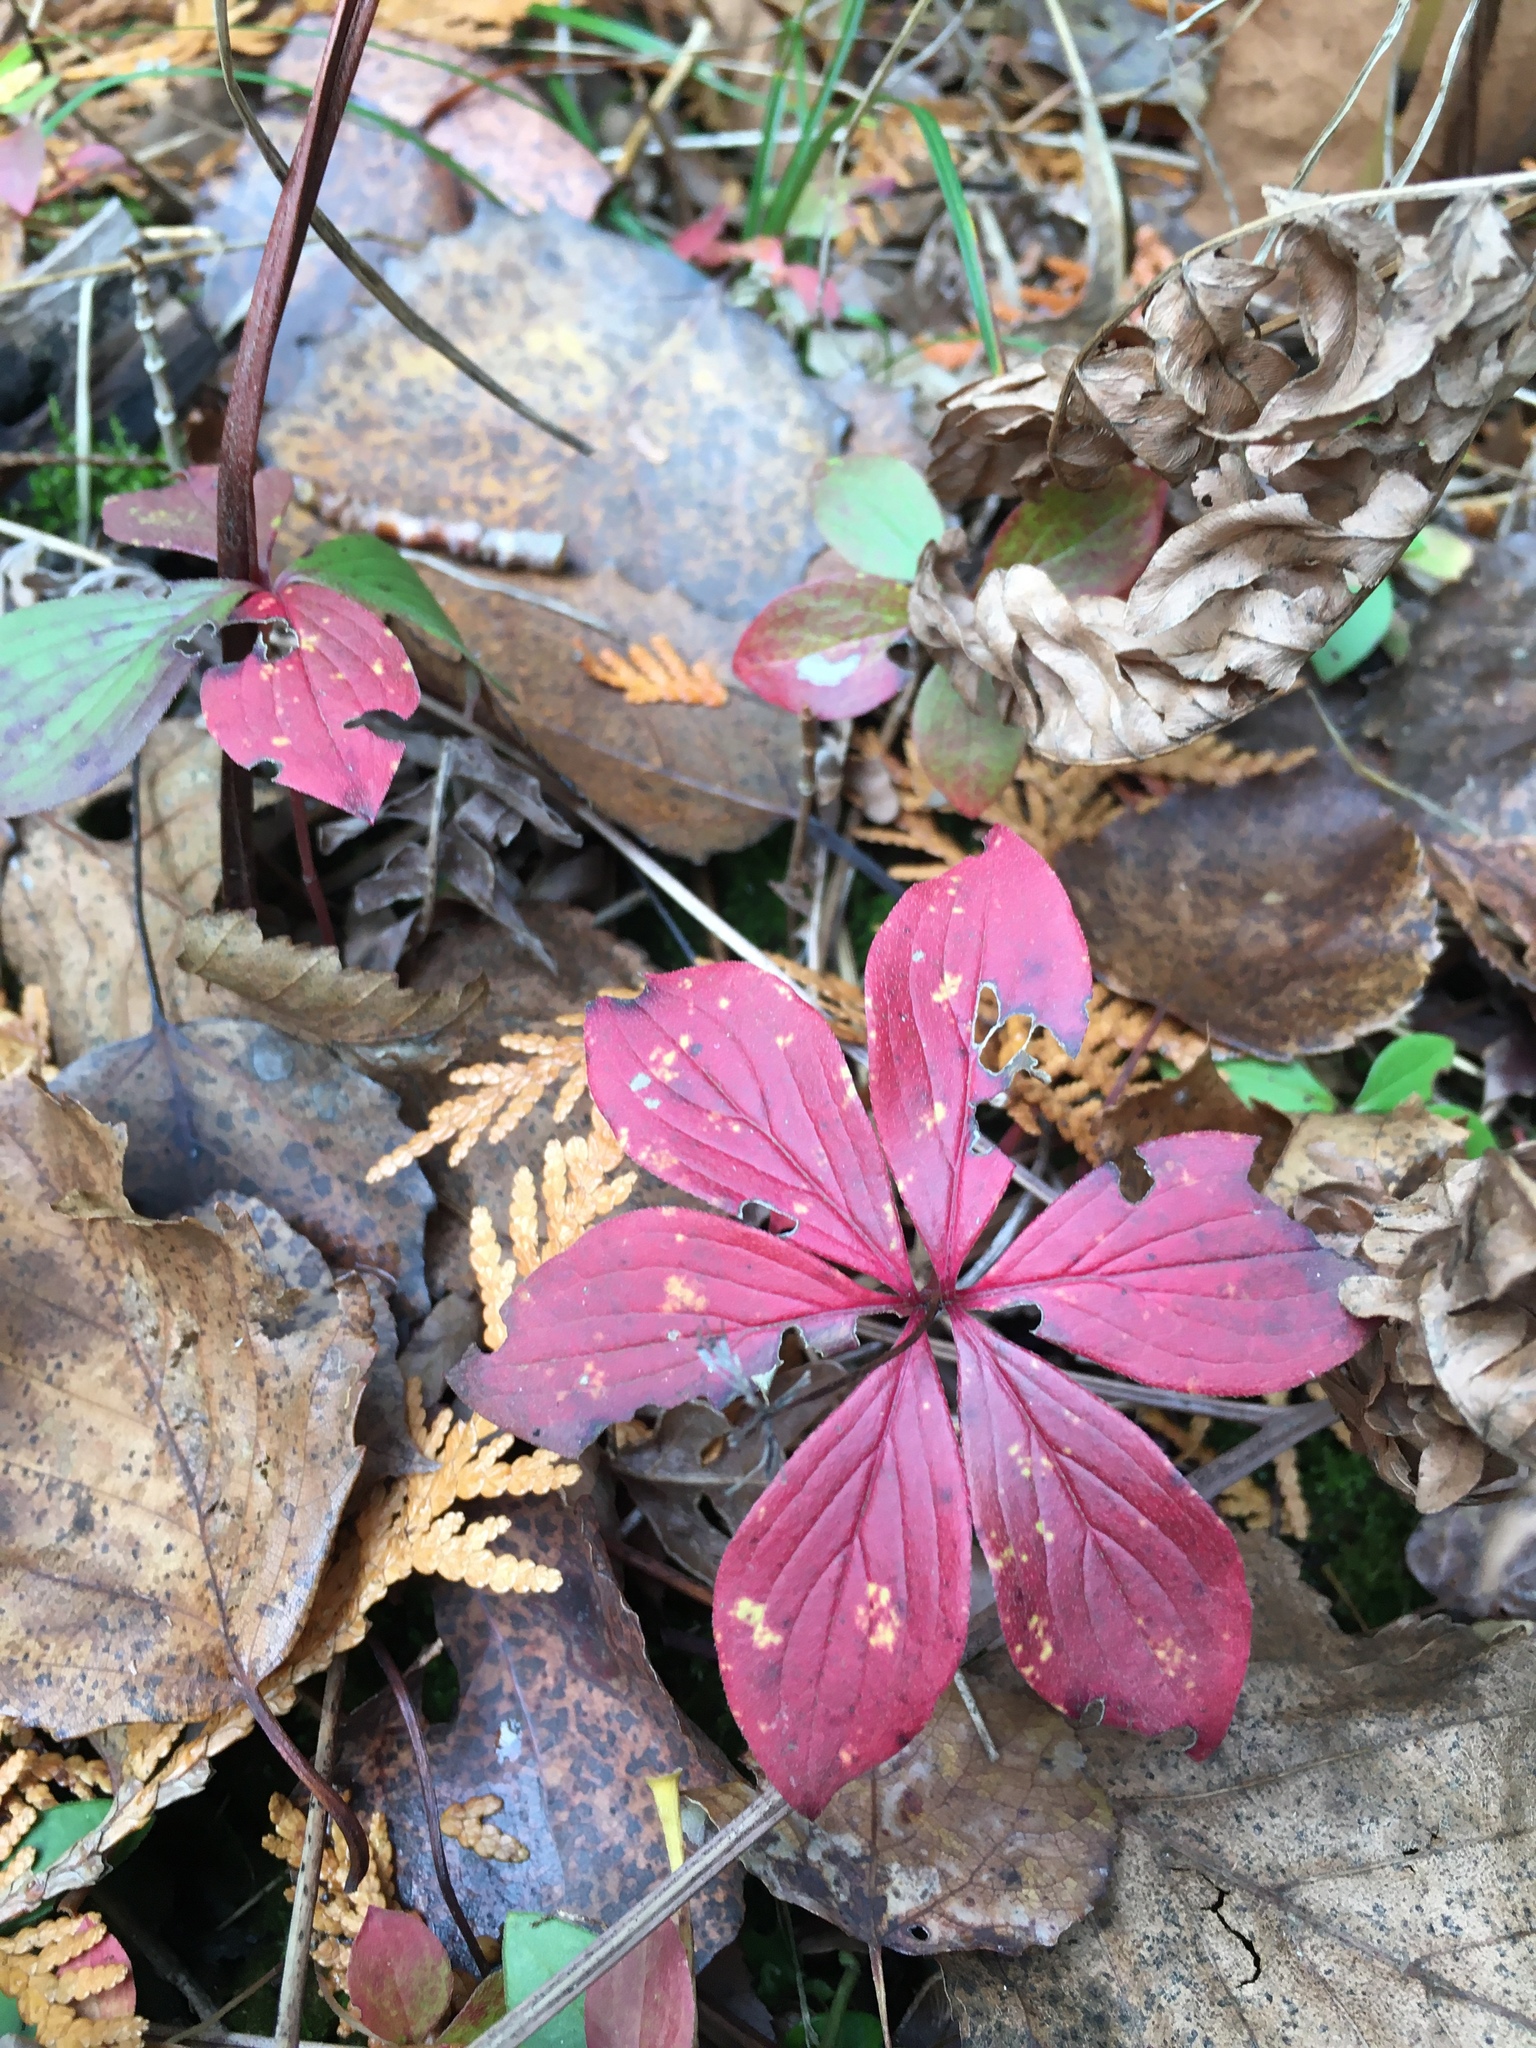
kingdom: Plantae
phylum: Tracheophyta
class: Magnoliopsida
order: Cornales
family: Cornaceae
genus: Cornus
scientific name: Cornus canadensis
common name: Creeping dogwood
